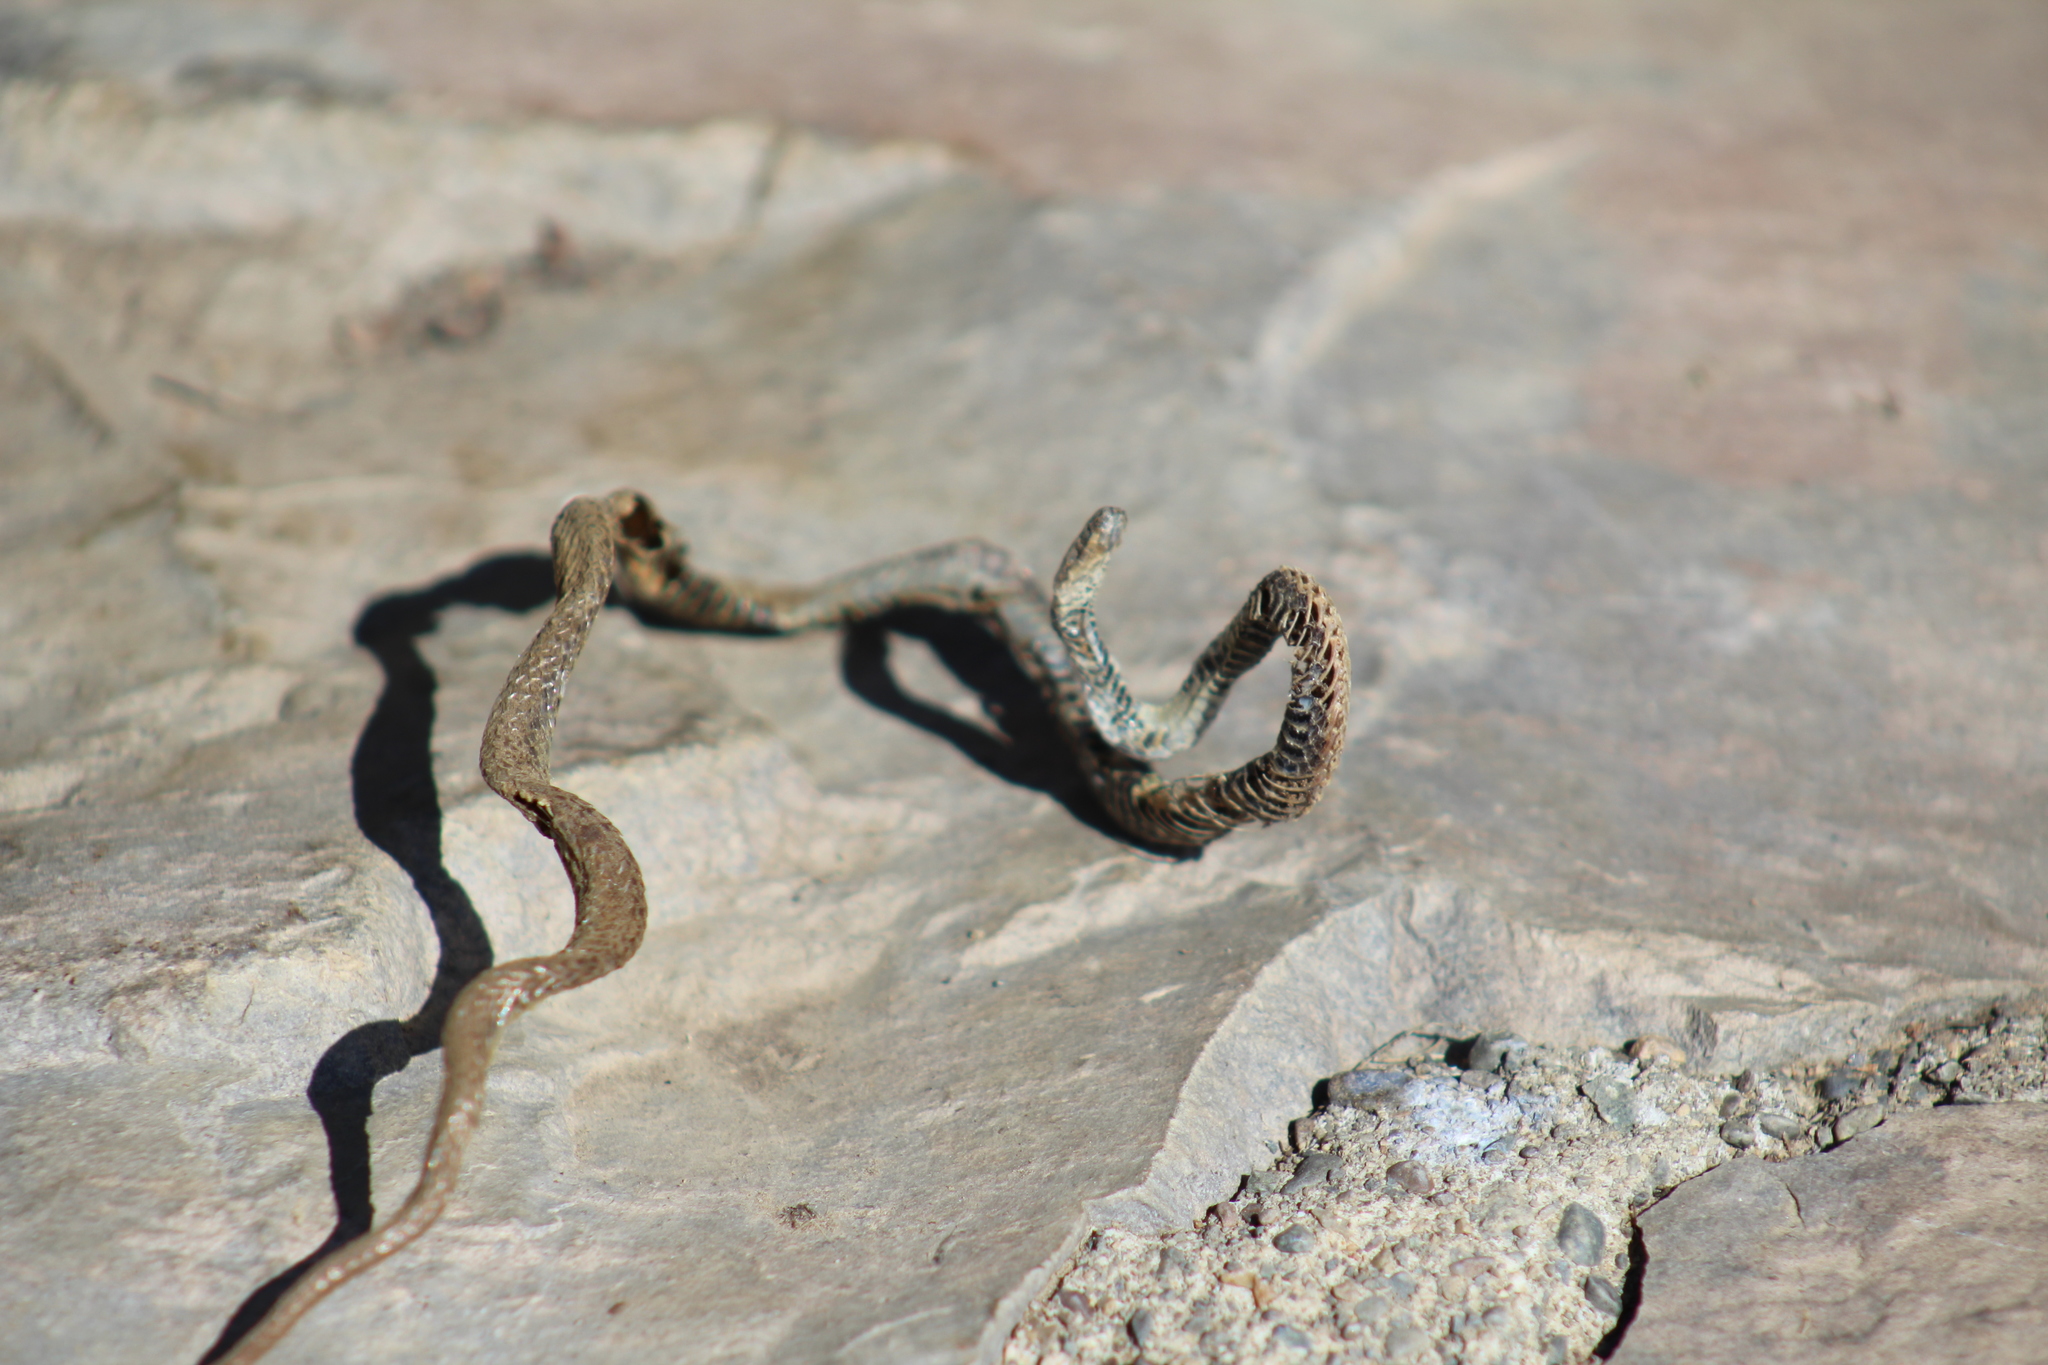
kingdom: Animalia
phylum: Chordata
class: Squamata
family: Colubridae
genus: Contia
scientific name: Contia tenuis
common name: Sharptail snake
